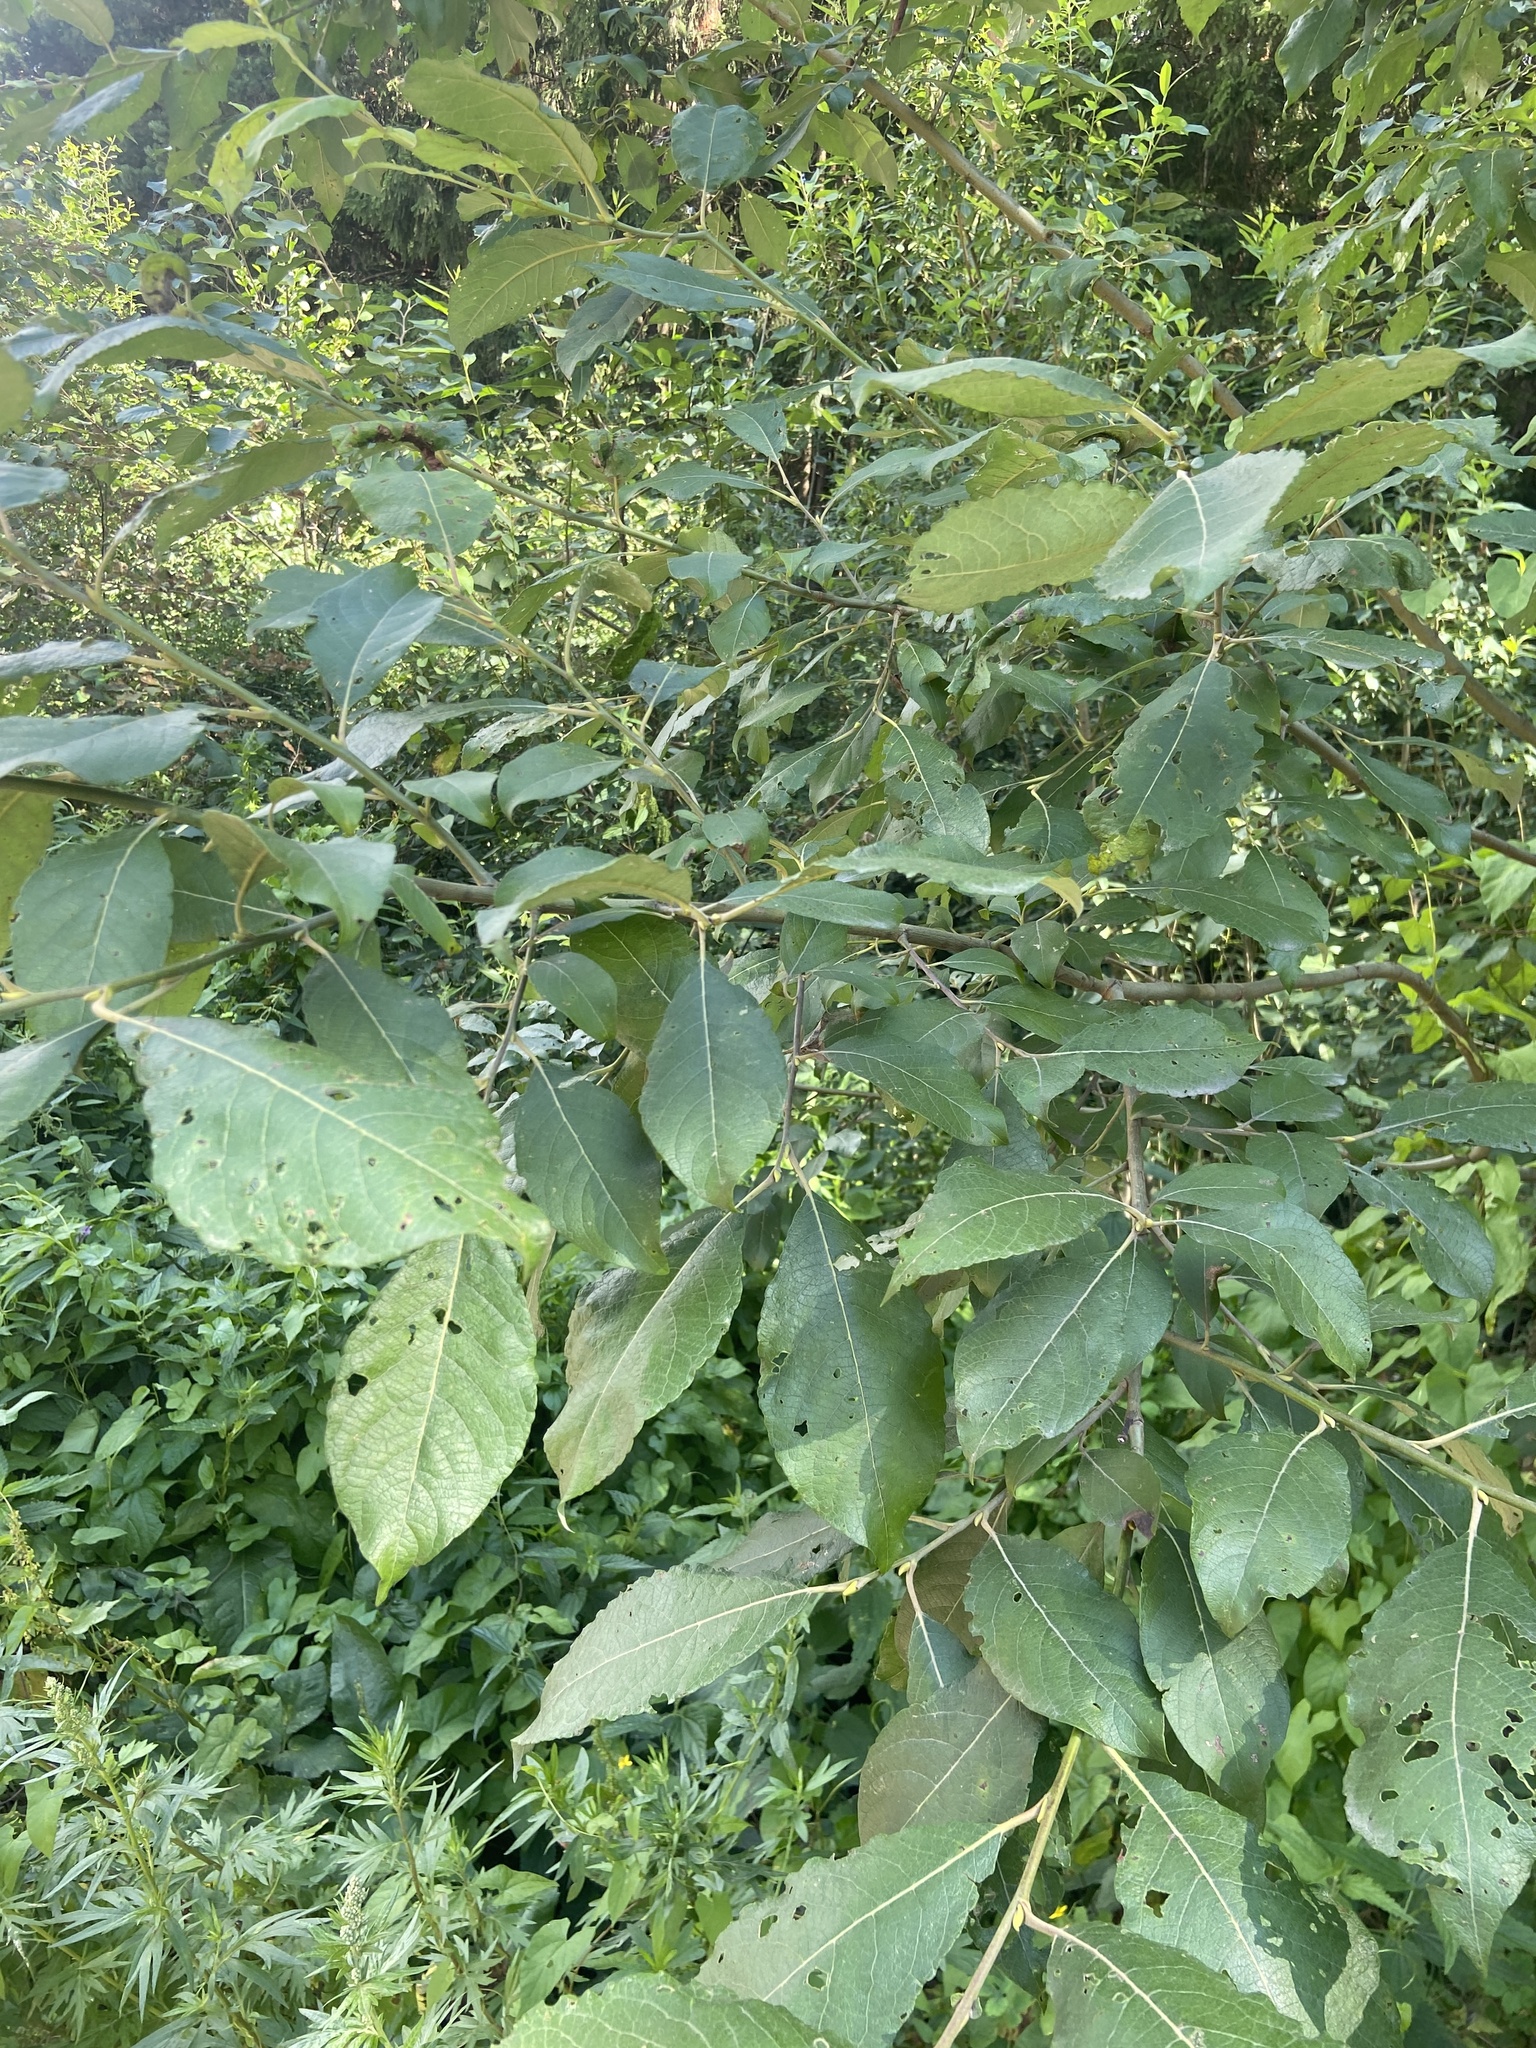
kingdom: Plantae
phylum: Tracheophyta
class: Magnoliopsida
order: Malpighiales
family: Salicaceae
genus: Salix
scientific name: Salix caprea
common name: Goat willow
